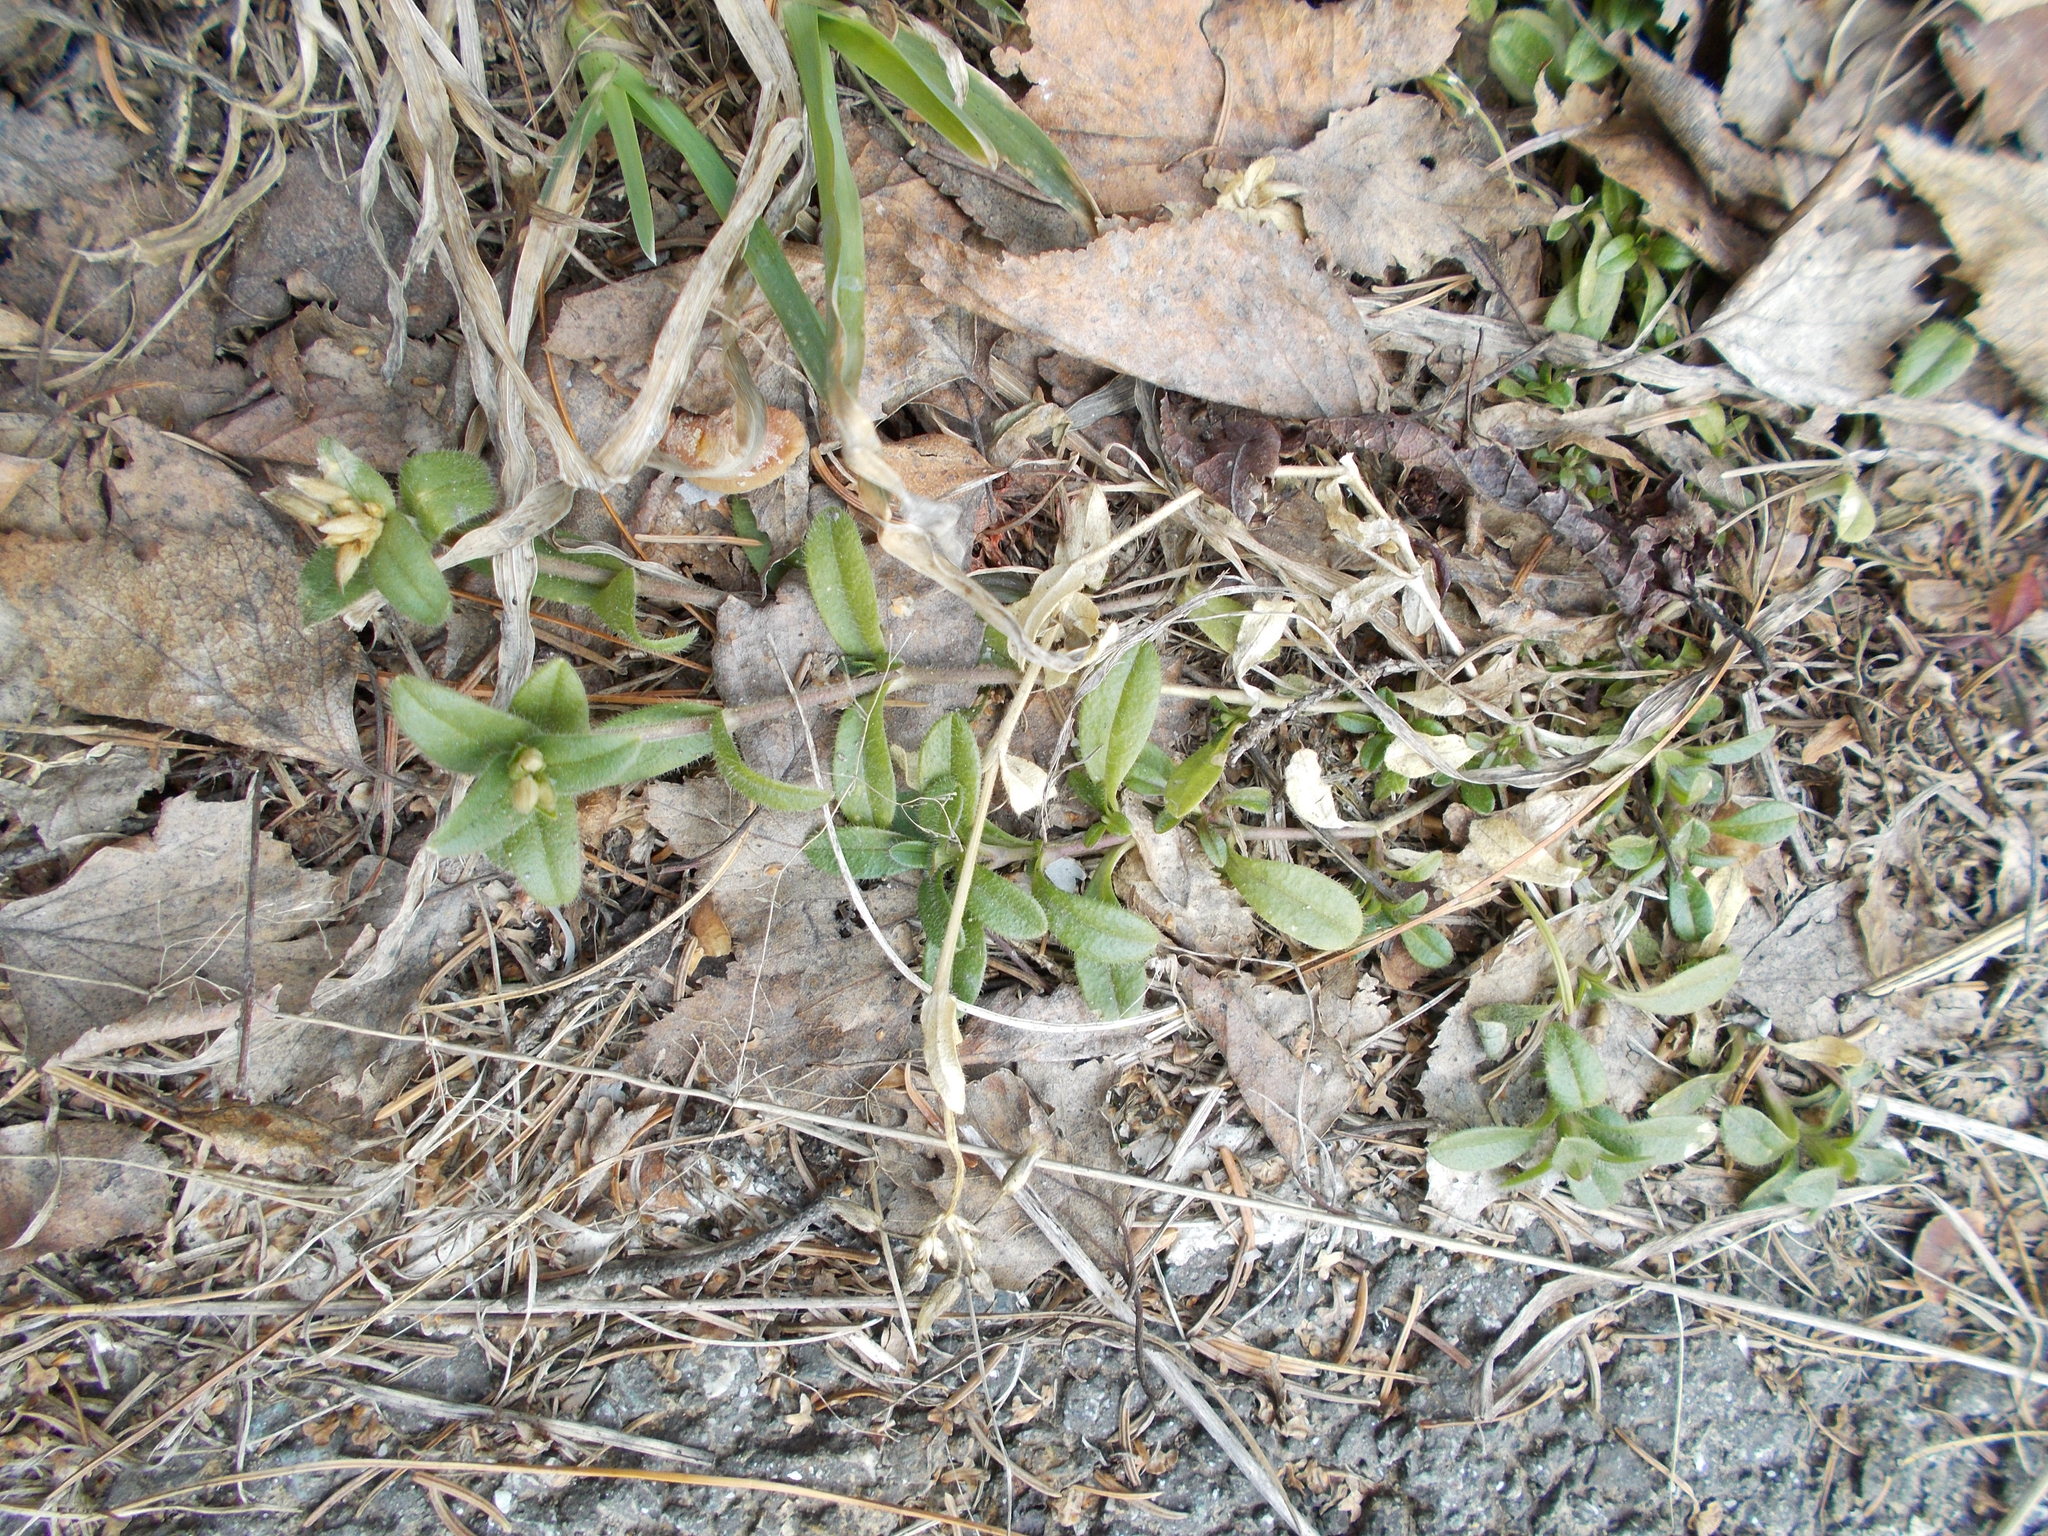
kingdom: Plantae
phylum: Tracheophyta
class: Magnoliopsida
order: Caryophyllales
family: Caryophyllaceae
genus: Cerastium
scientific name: Cerastium holosteoides
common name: Big chickweed
